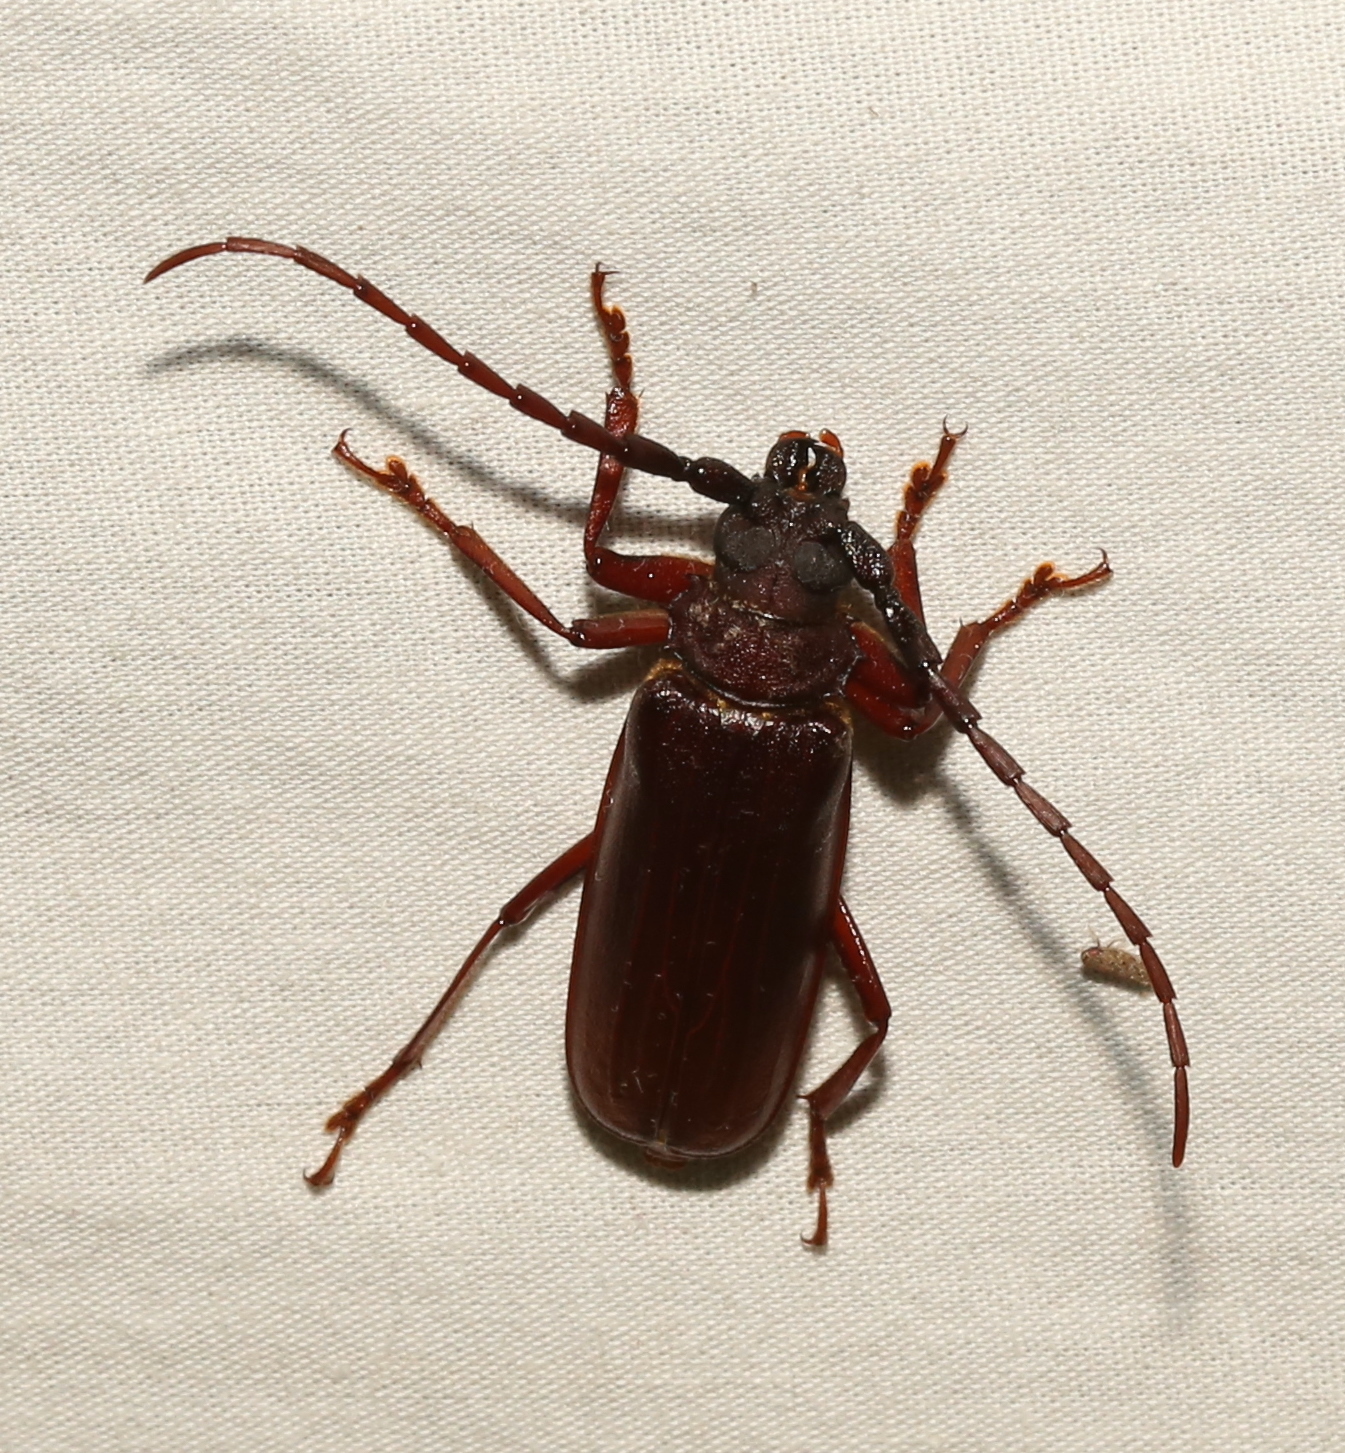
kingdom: Animalia
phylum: Arthropoda
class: Insecta
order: Coleoptera
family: Cerambycidae
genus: Orthosoma
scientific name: Orthosoma brunneum
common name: Brown prionid beetle
